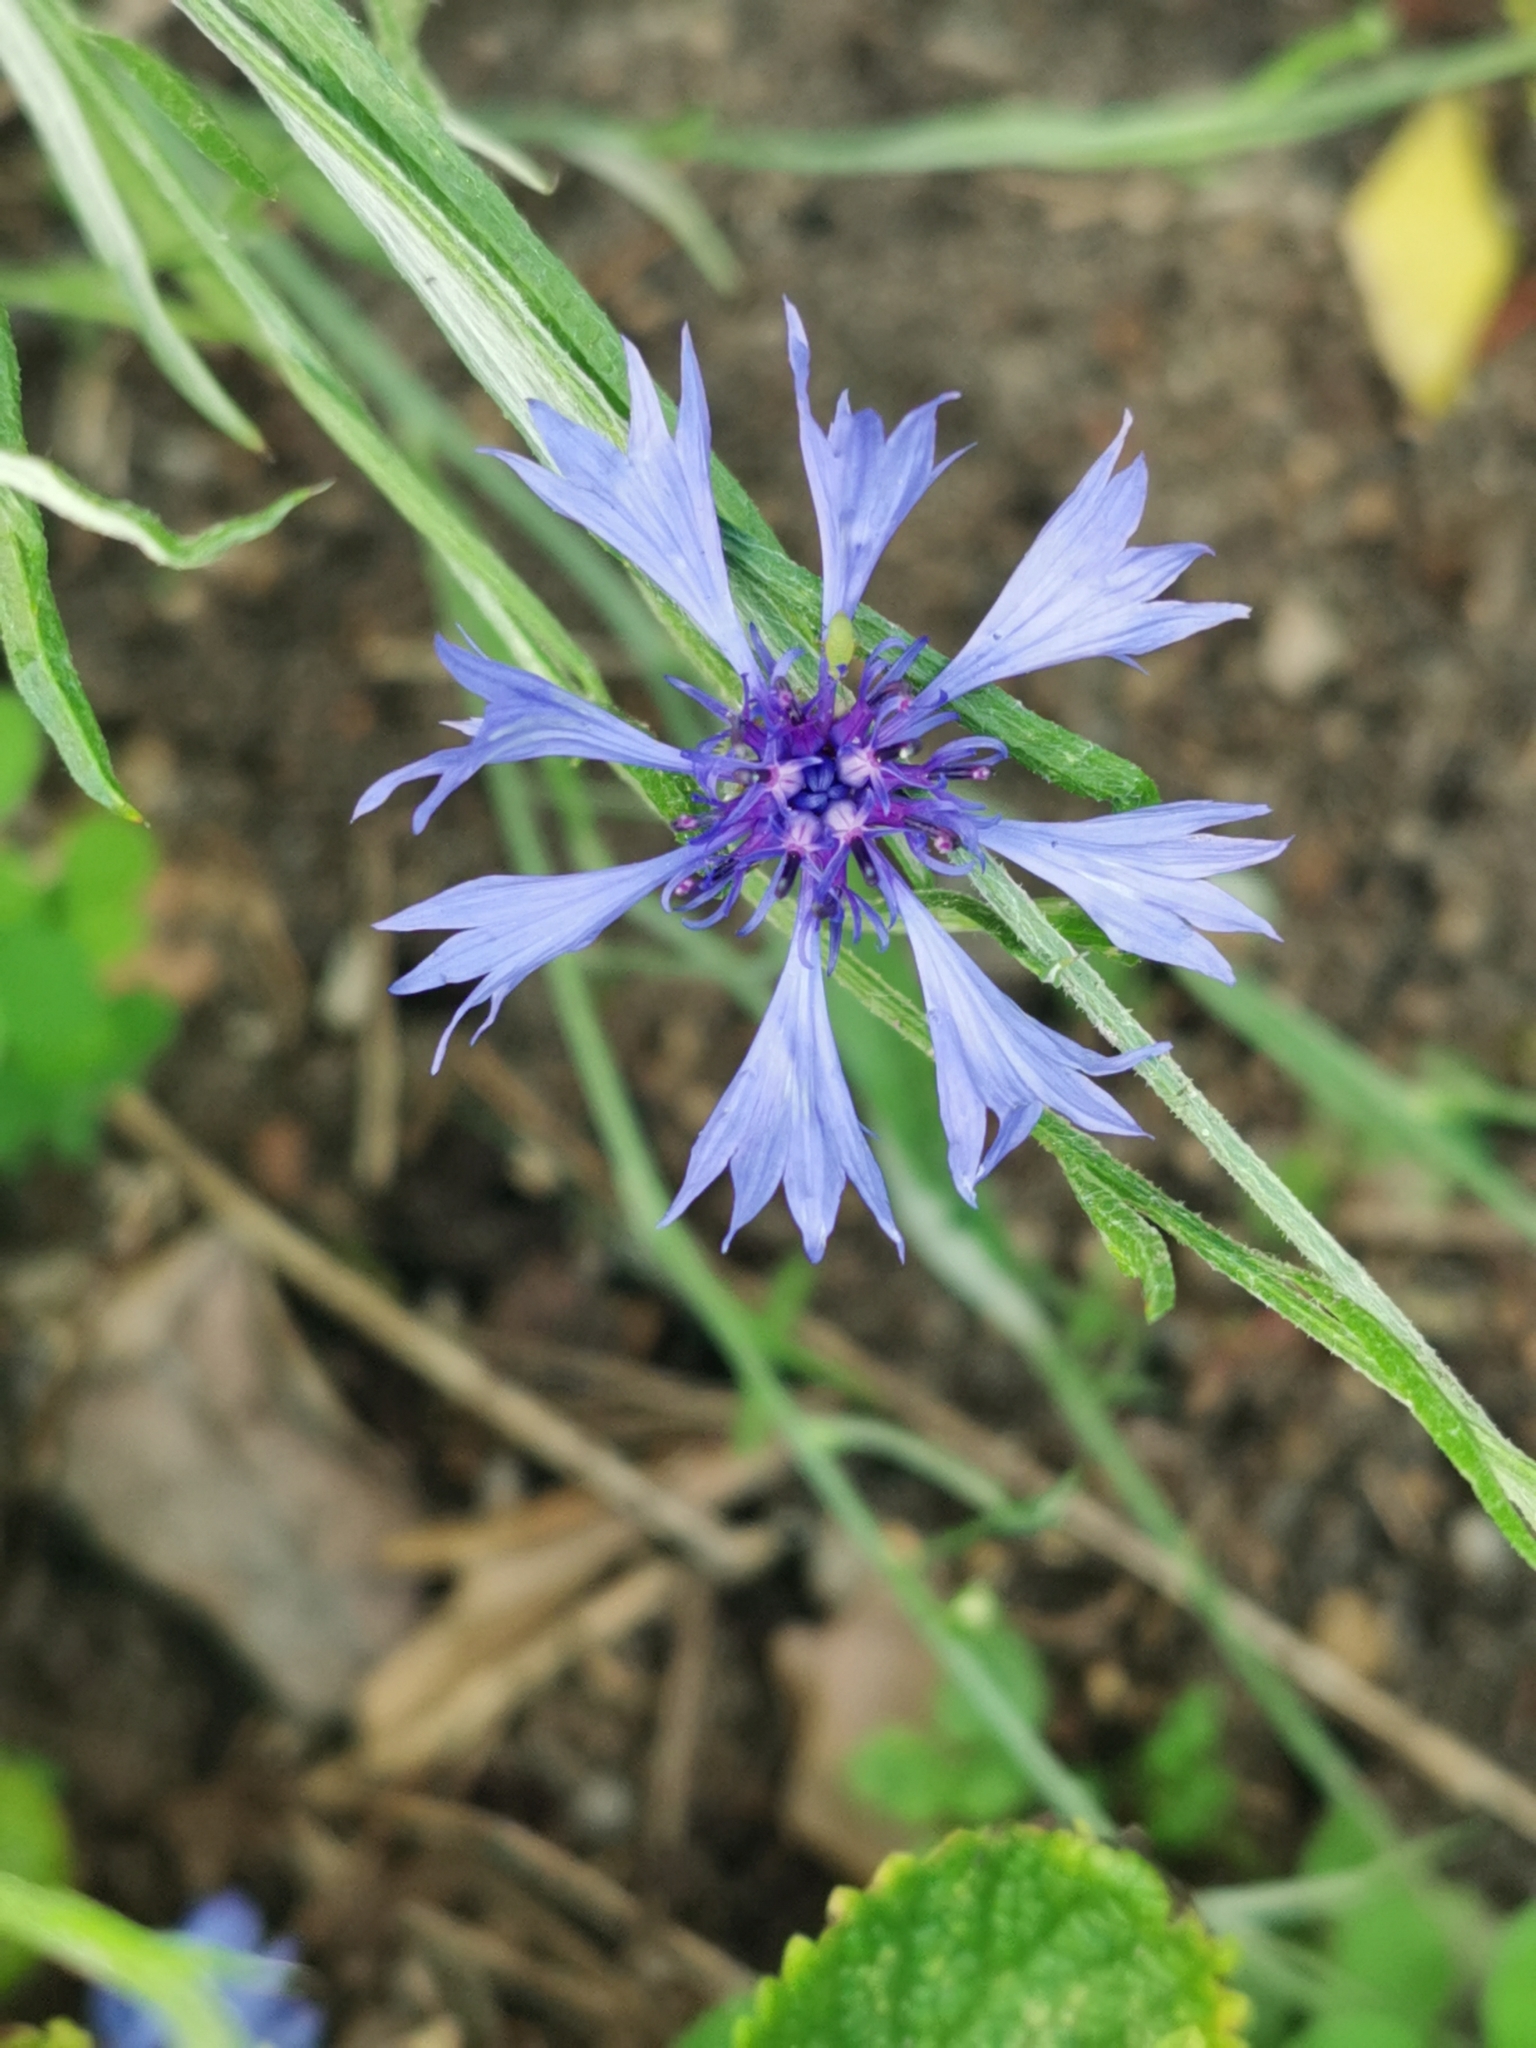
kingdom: Plantae
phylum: Tracheophyta
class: Magnoliopsida
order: Asterales
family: Asteraceae
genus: Centaurea
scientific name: Centaurea cyanus
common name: Cornflower
